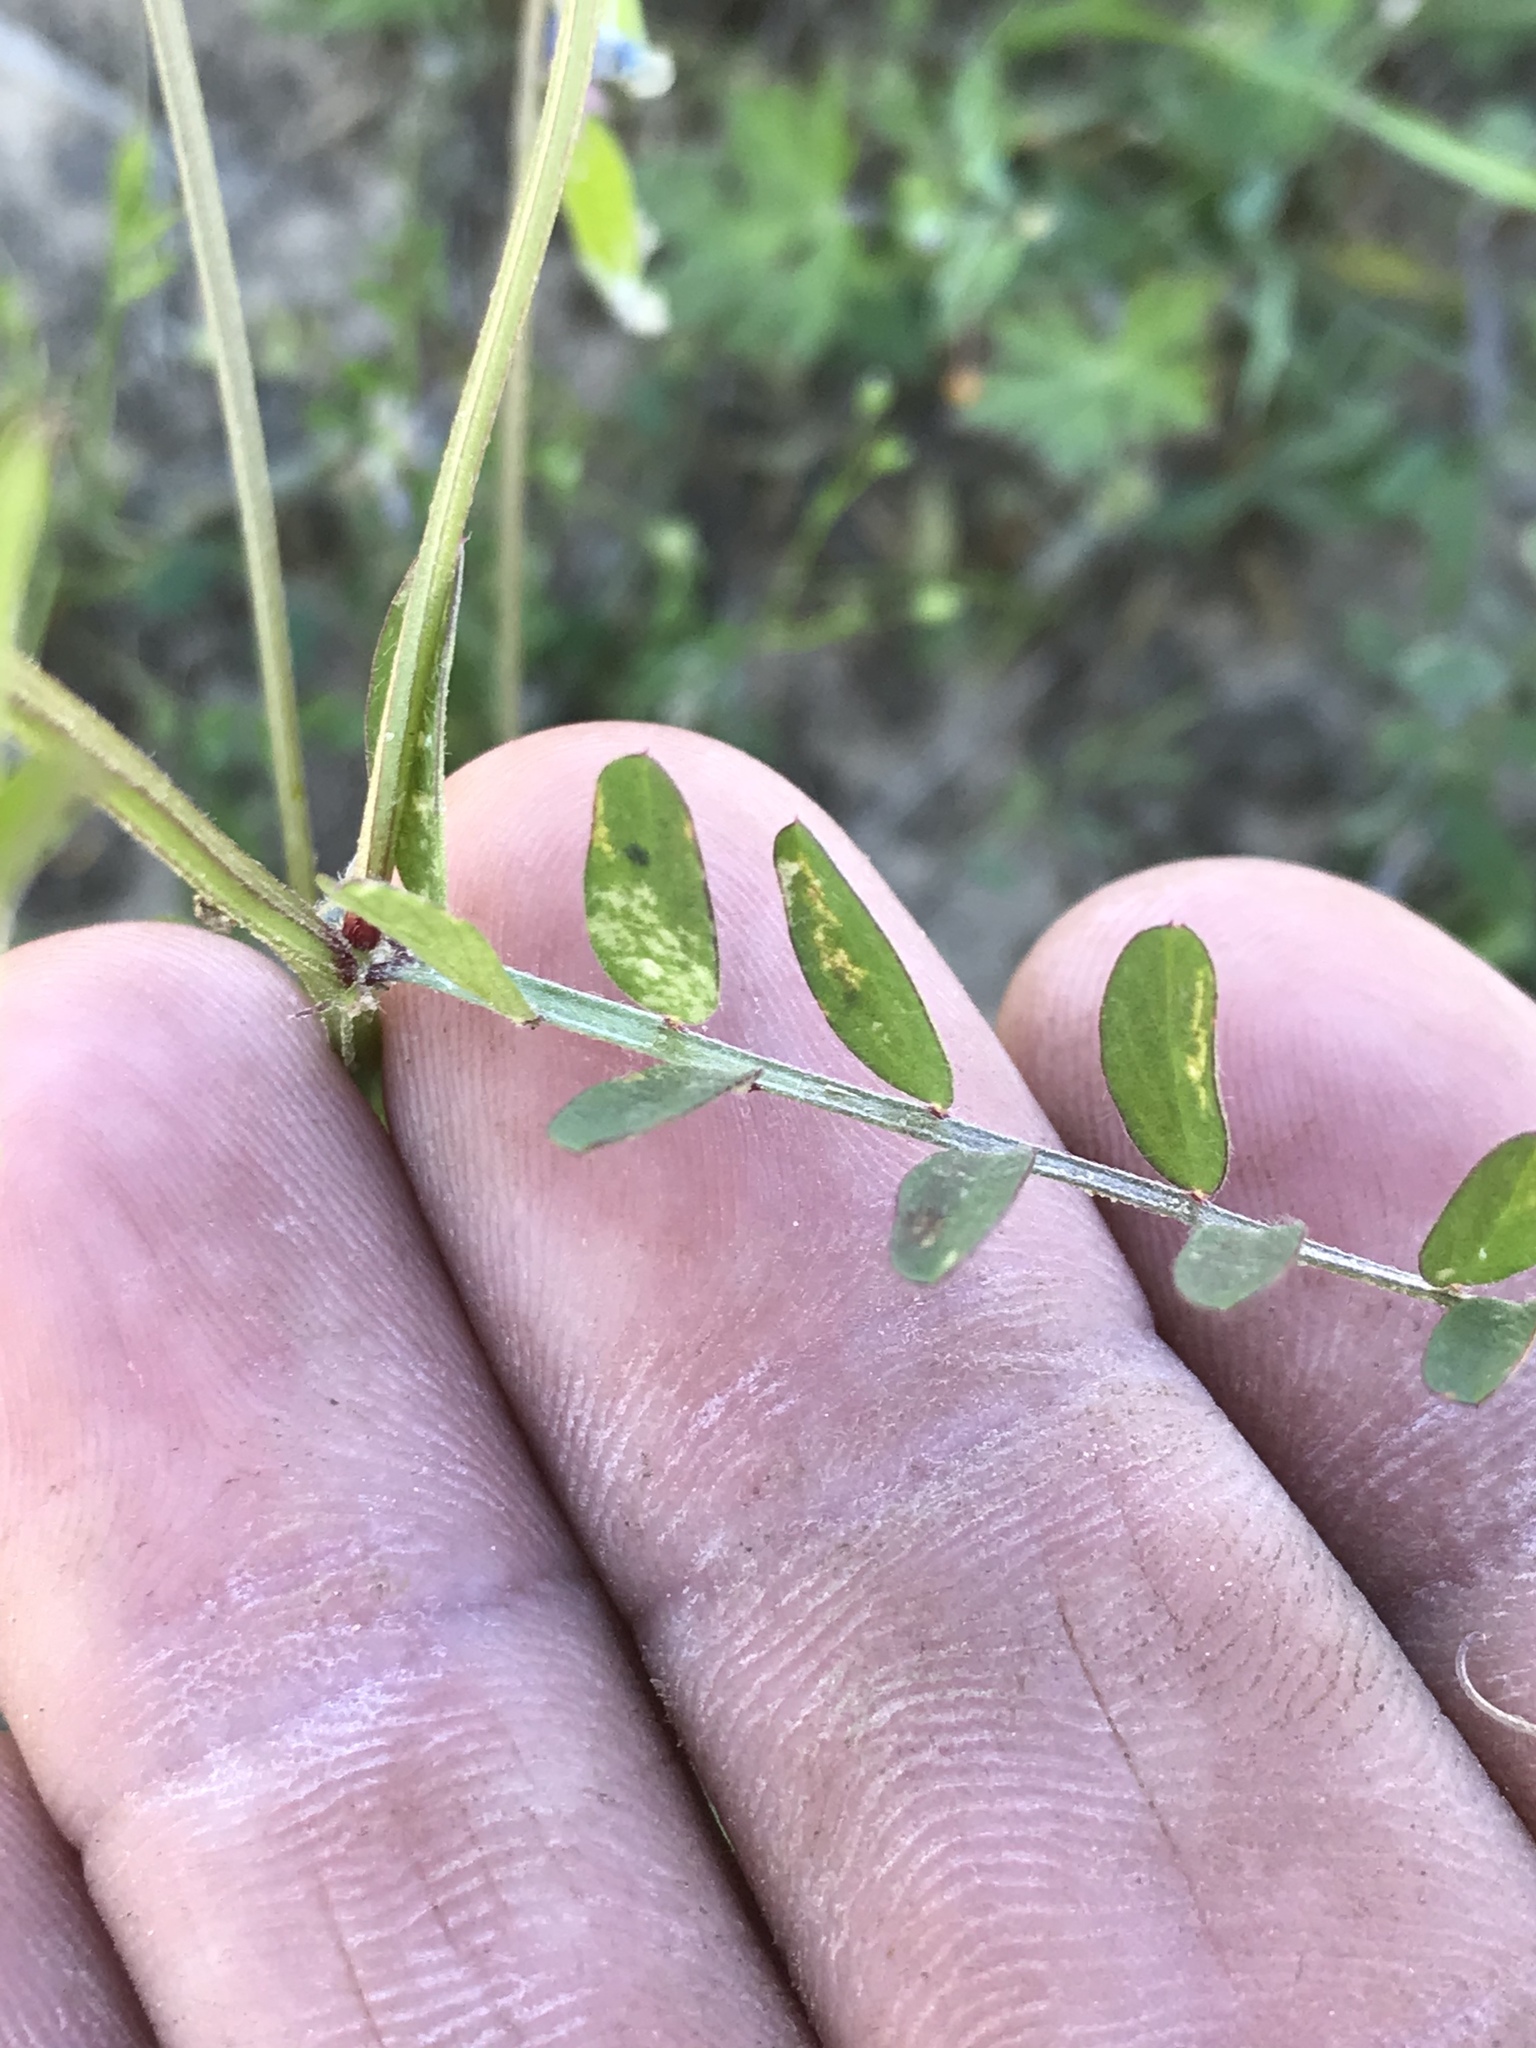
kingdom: Plantae
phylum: Tracheophyta
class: Magnoliopsida
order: Fabales
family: Fabaceae
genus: Vicia
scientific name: Vicia ludoviciana
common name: Louisiana vetch
